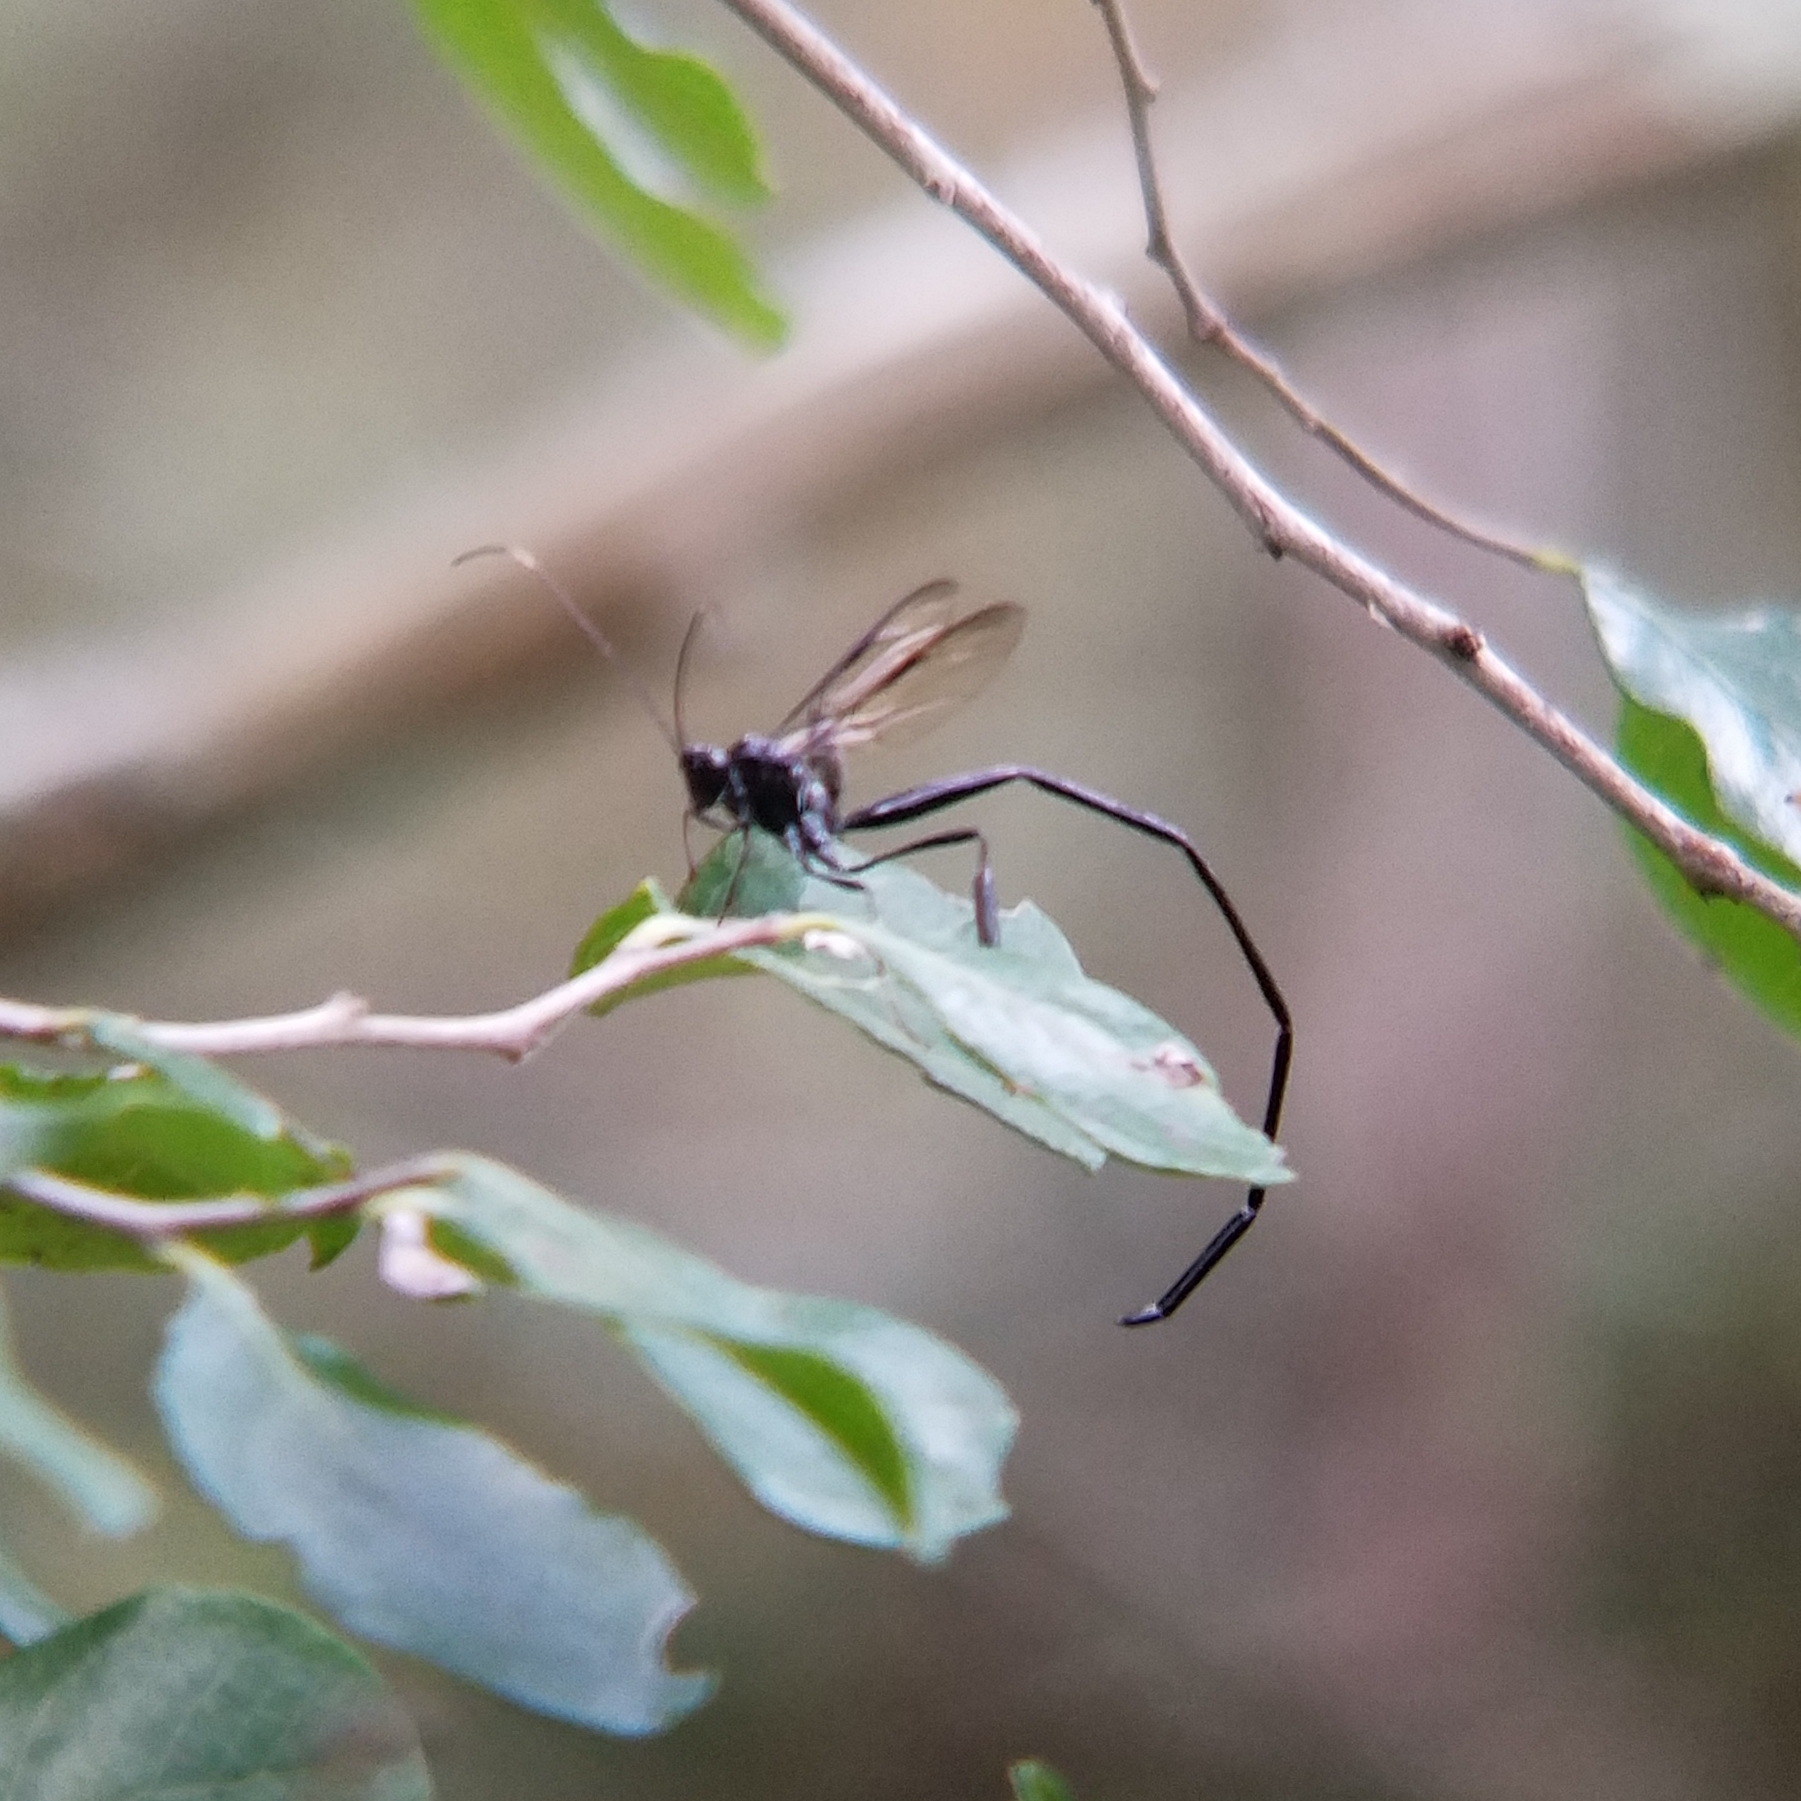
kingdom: Animalia
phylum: Arthropoda
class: Insecta
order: Hymenoptera
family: Pelecinidae
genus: Pelecinus
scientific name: Pelecinus polyturator
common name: American pelecinid wasp
